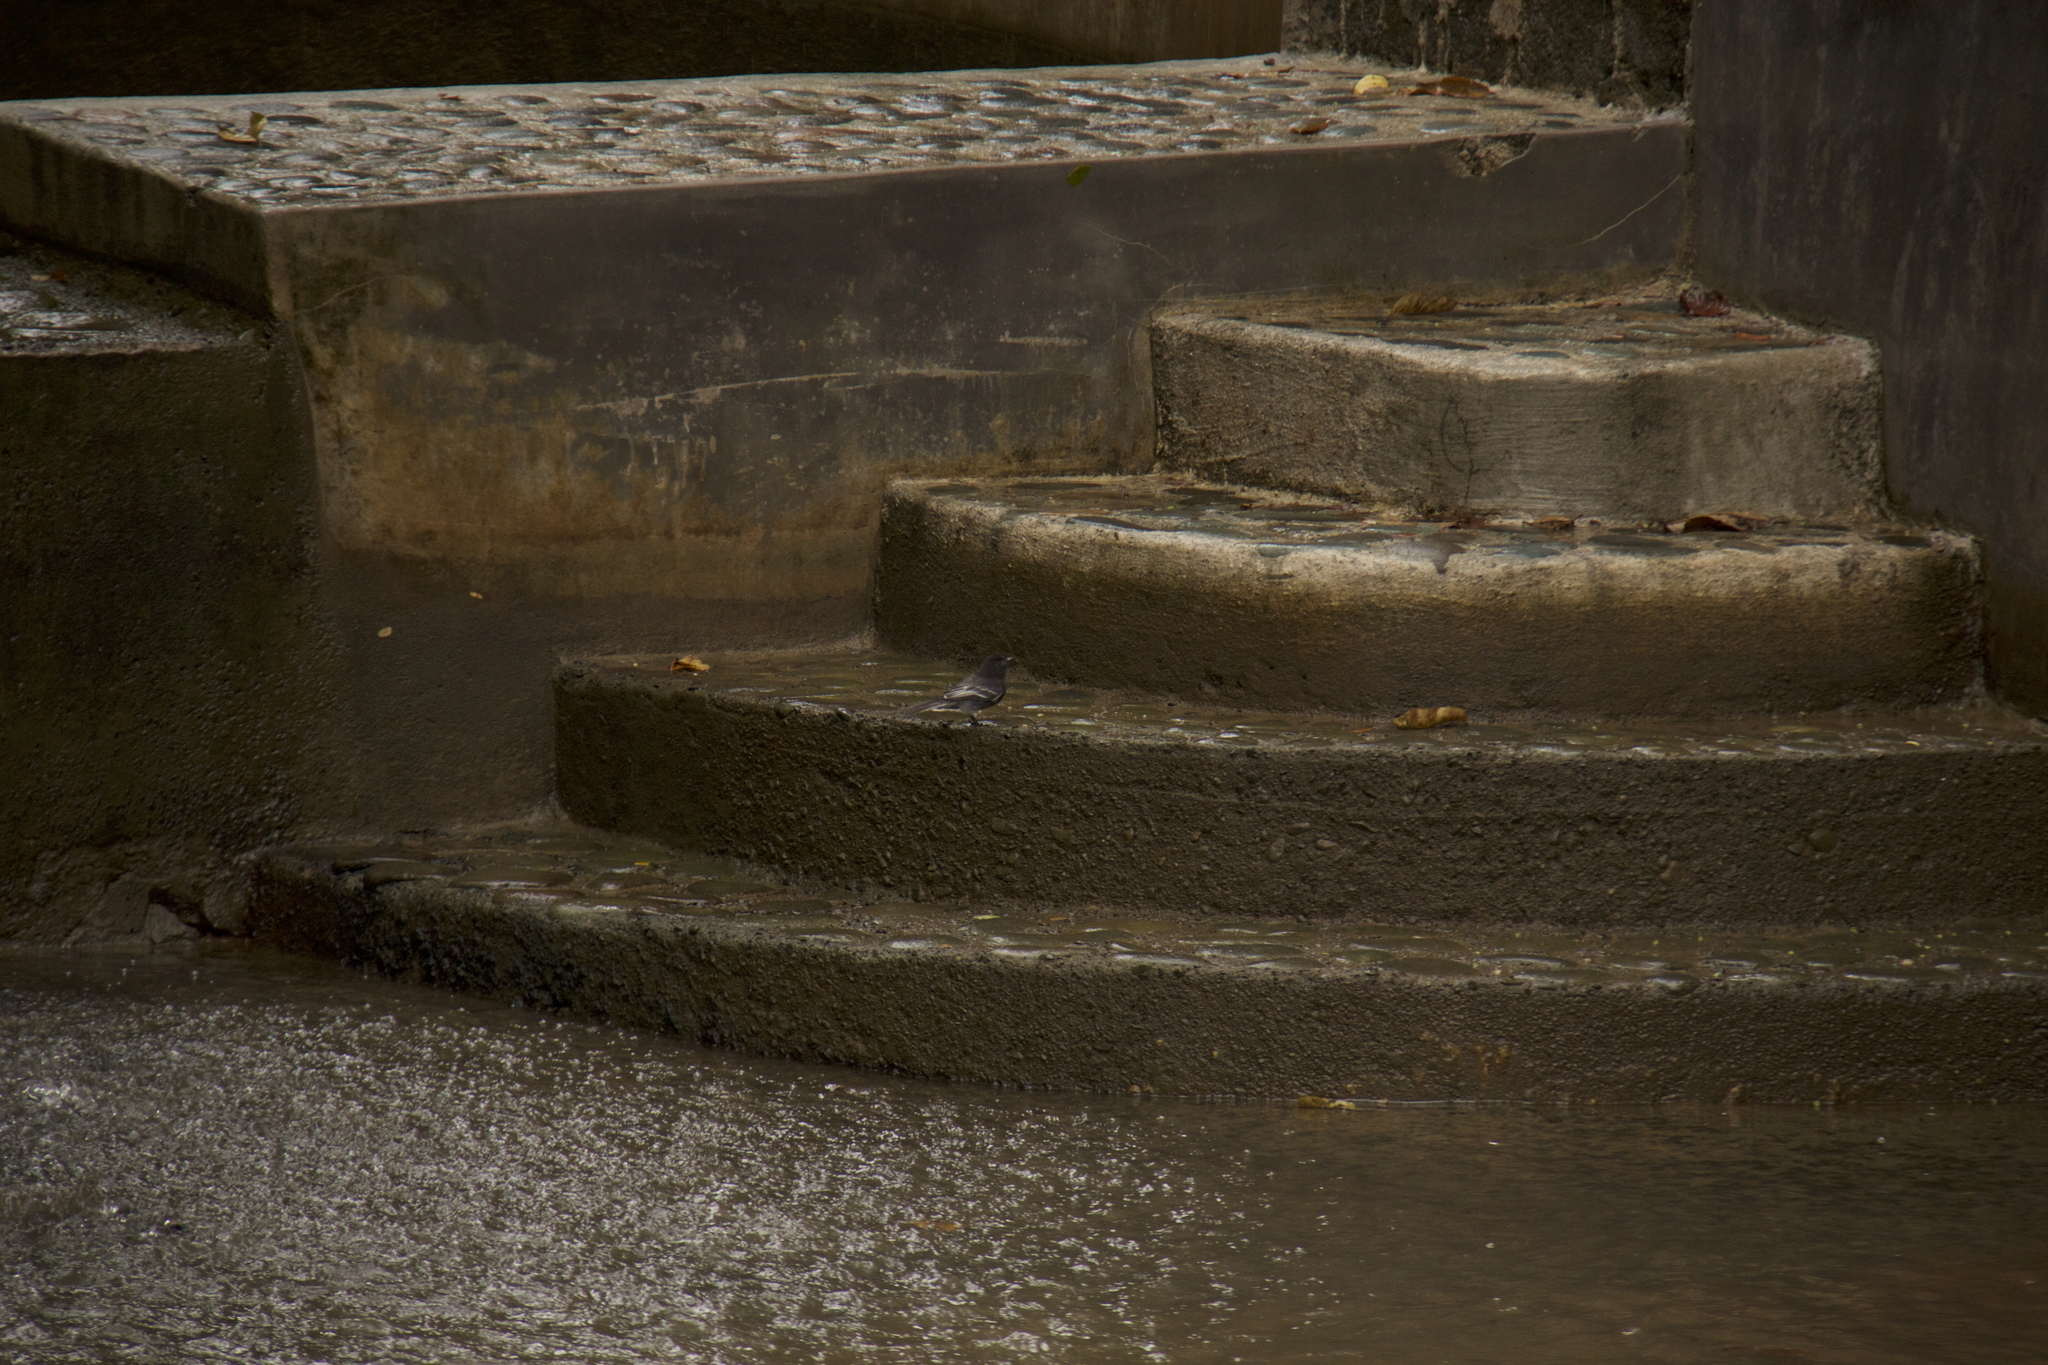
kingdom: Animalia
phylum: Chordata
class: Aves
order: Passeriformes
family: Tyrannidae
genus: Sayornis
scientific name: Sayornis nigricans
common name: Black phoebe
